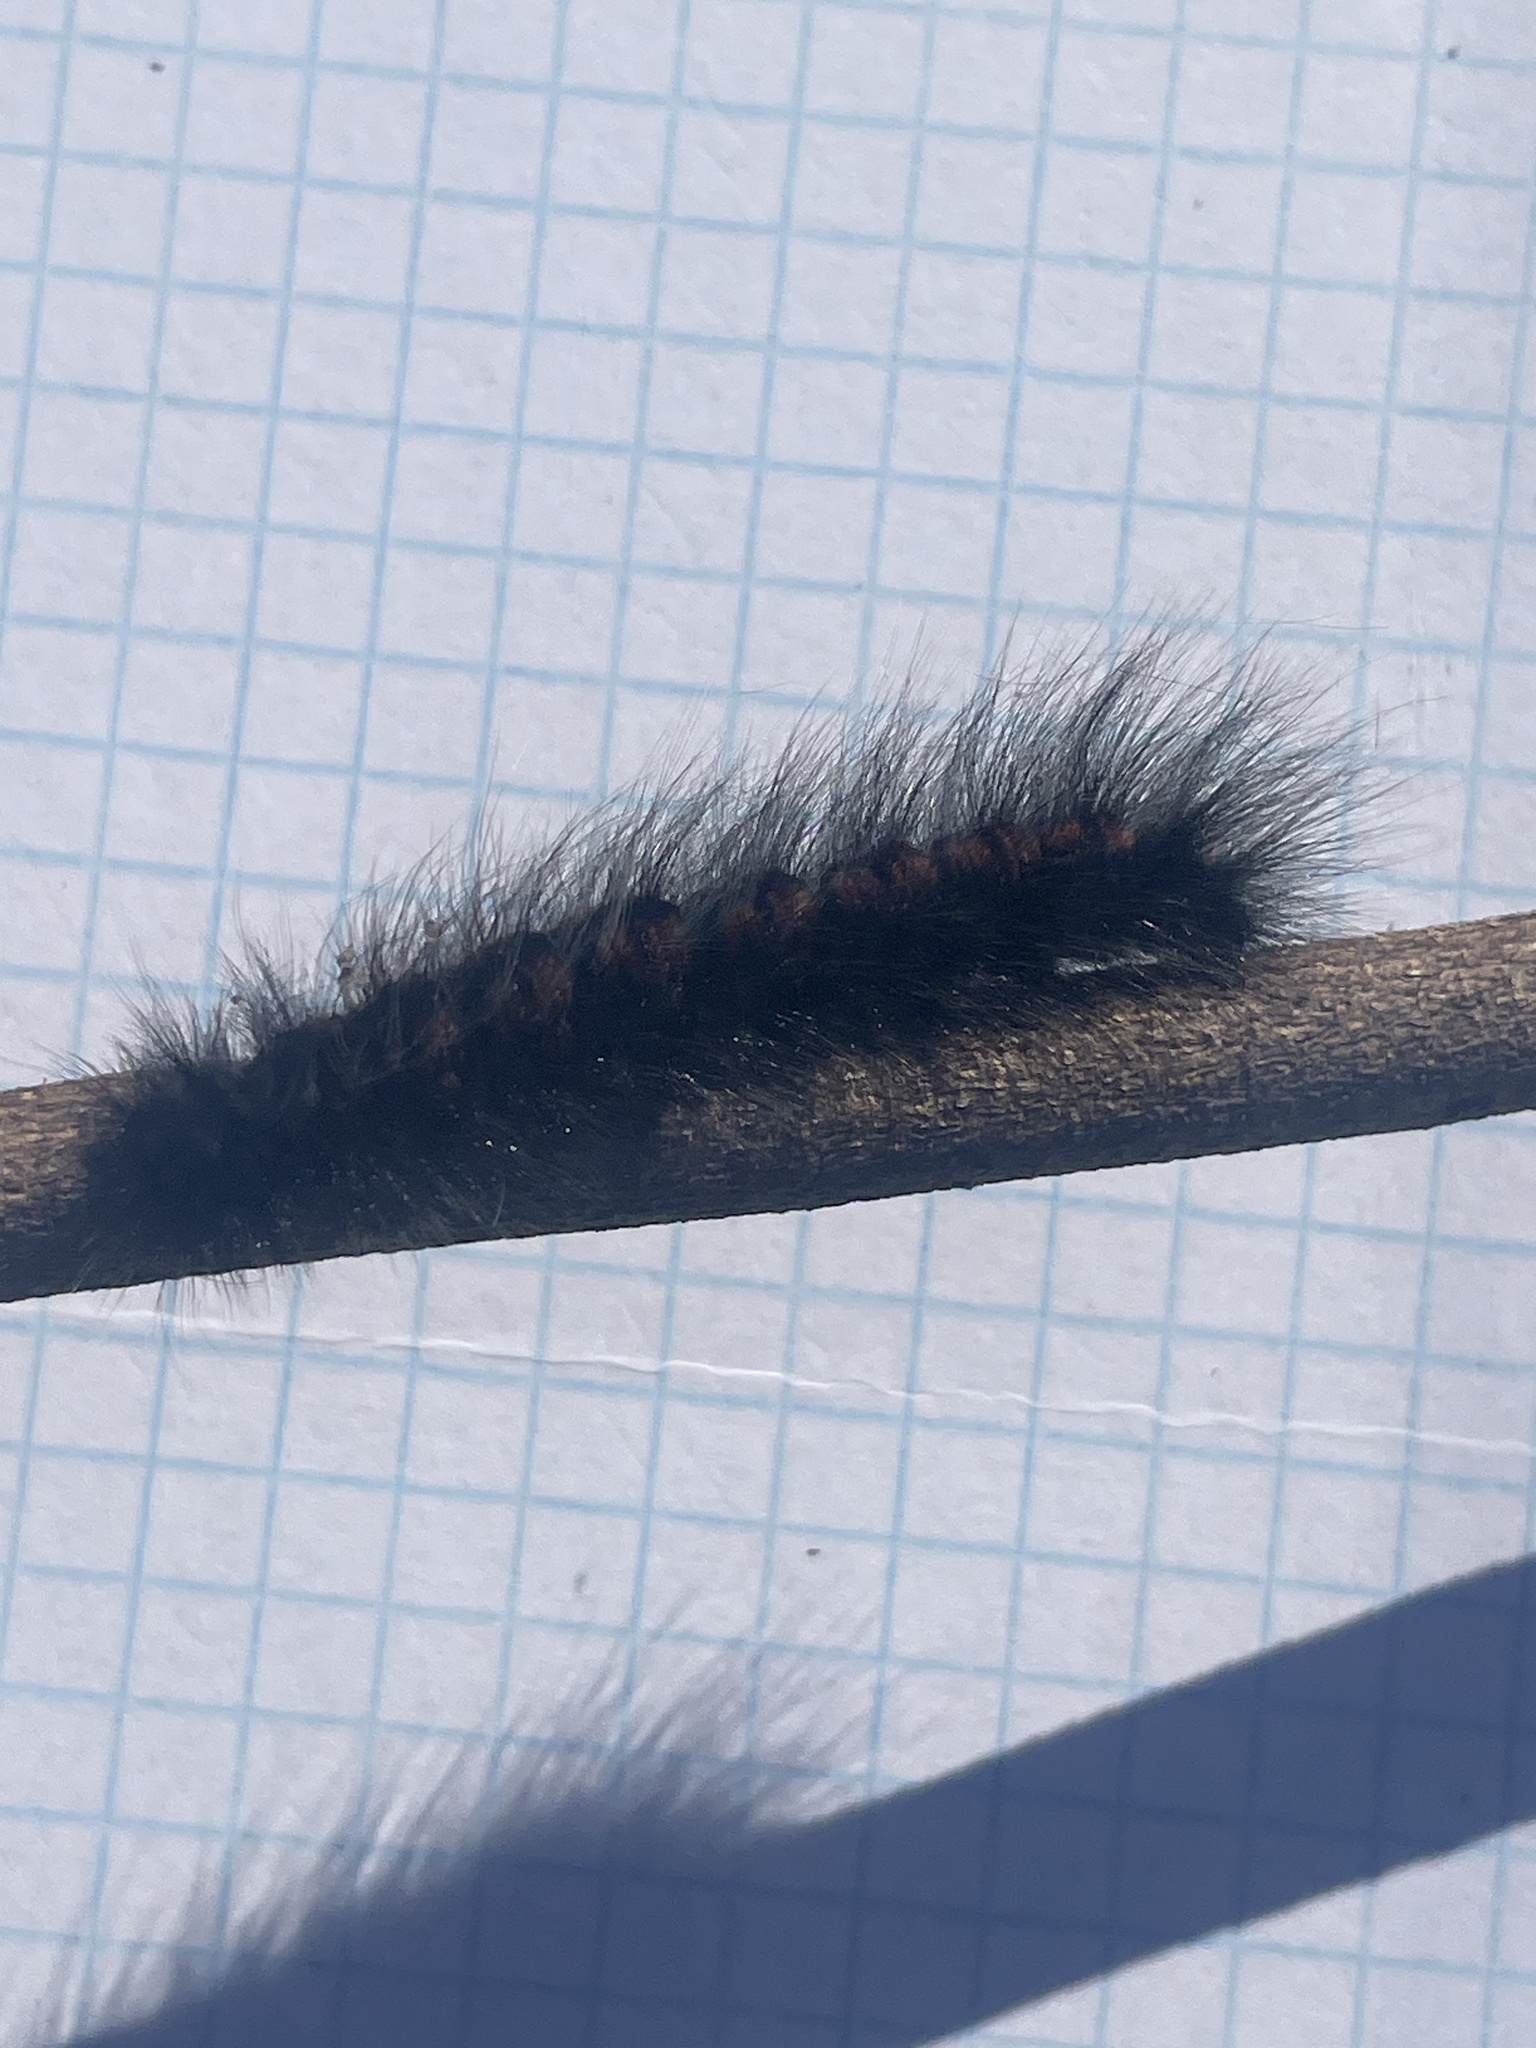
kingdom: Animalia
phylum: Arthropoda
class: Insecta
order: Lepidoptera
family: Lasiocampidae
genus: Mesocelis
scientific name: Mesocelis monticola
